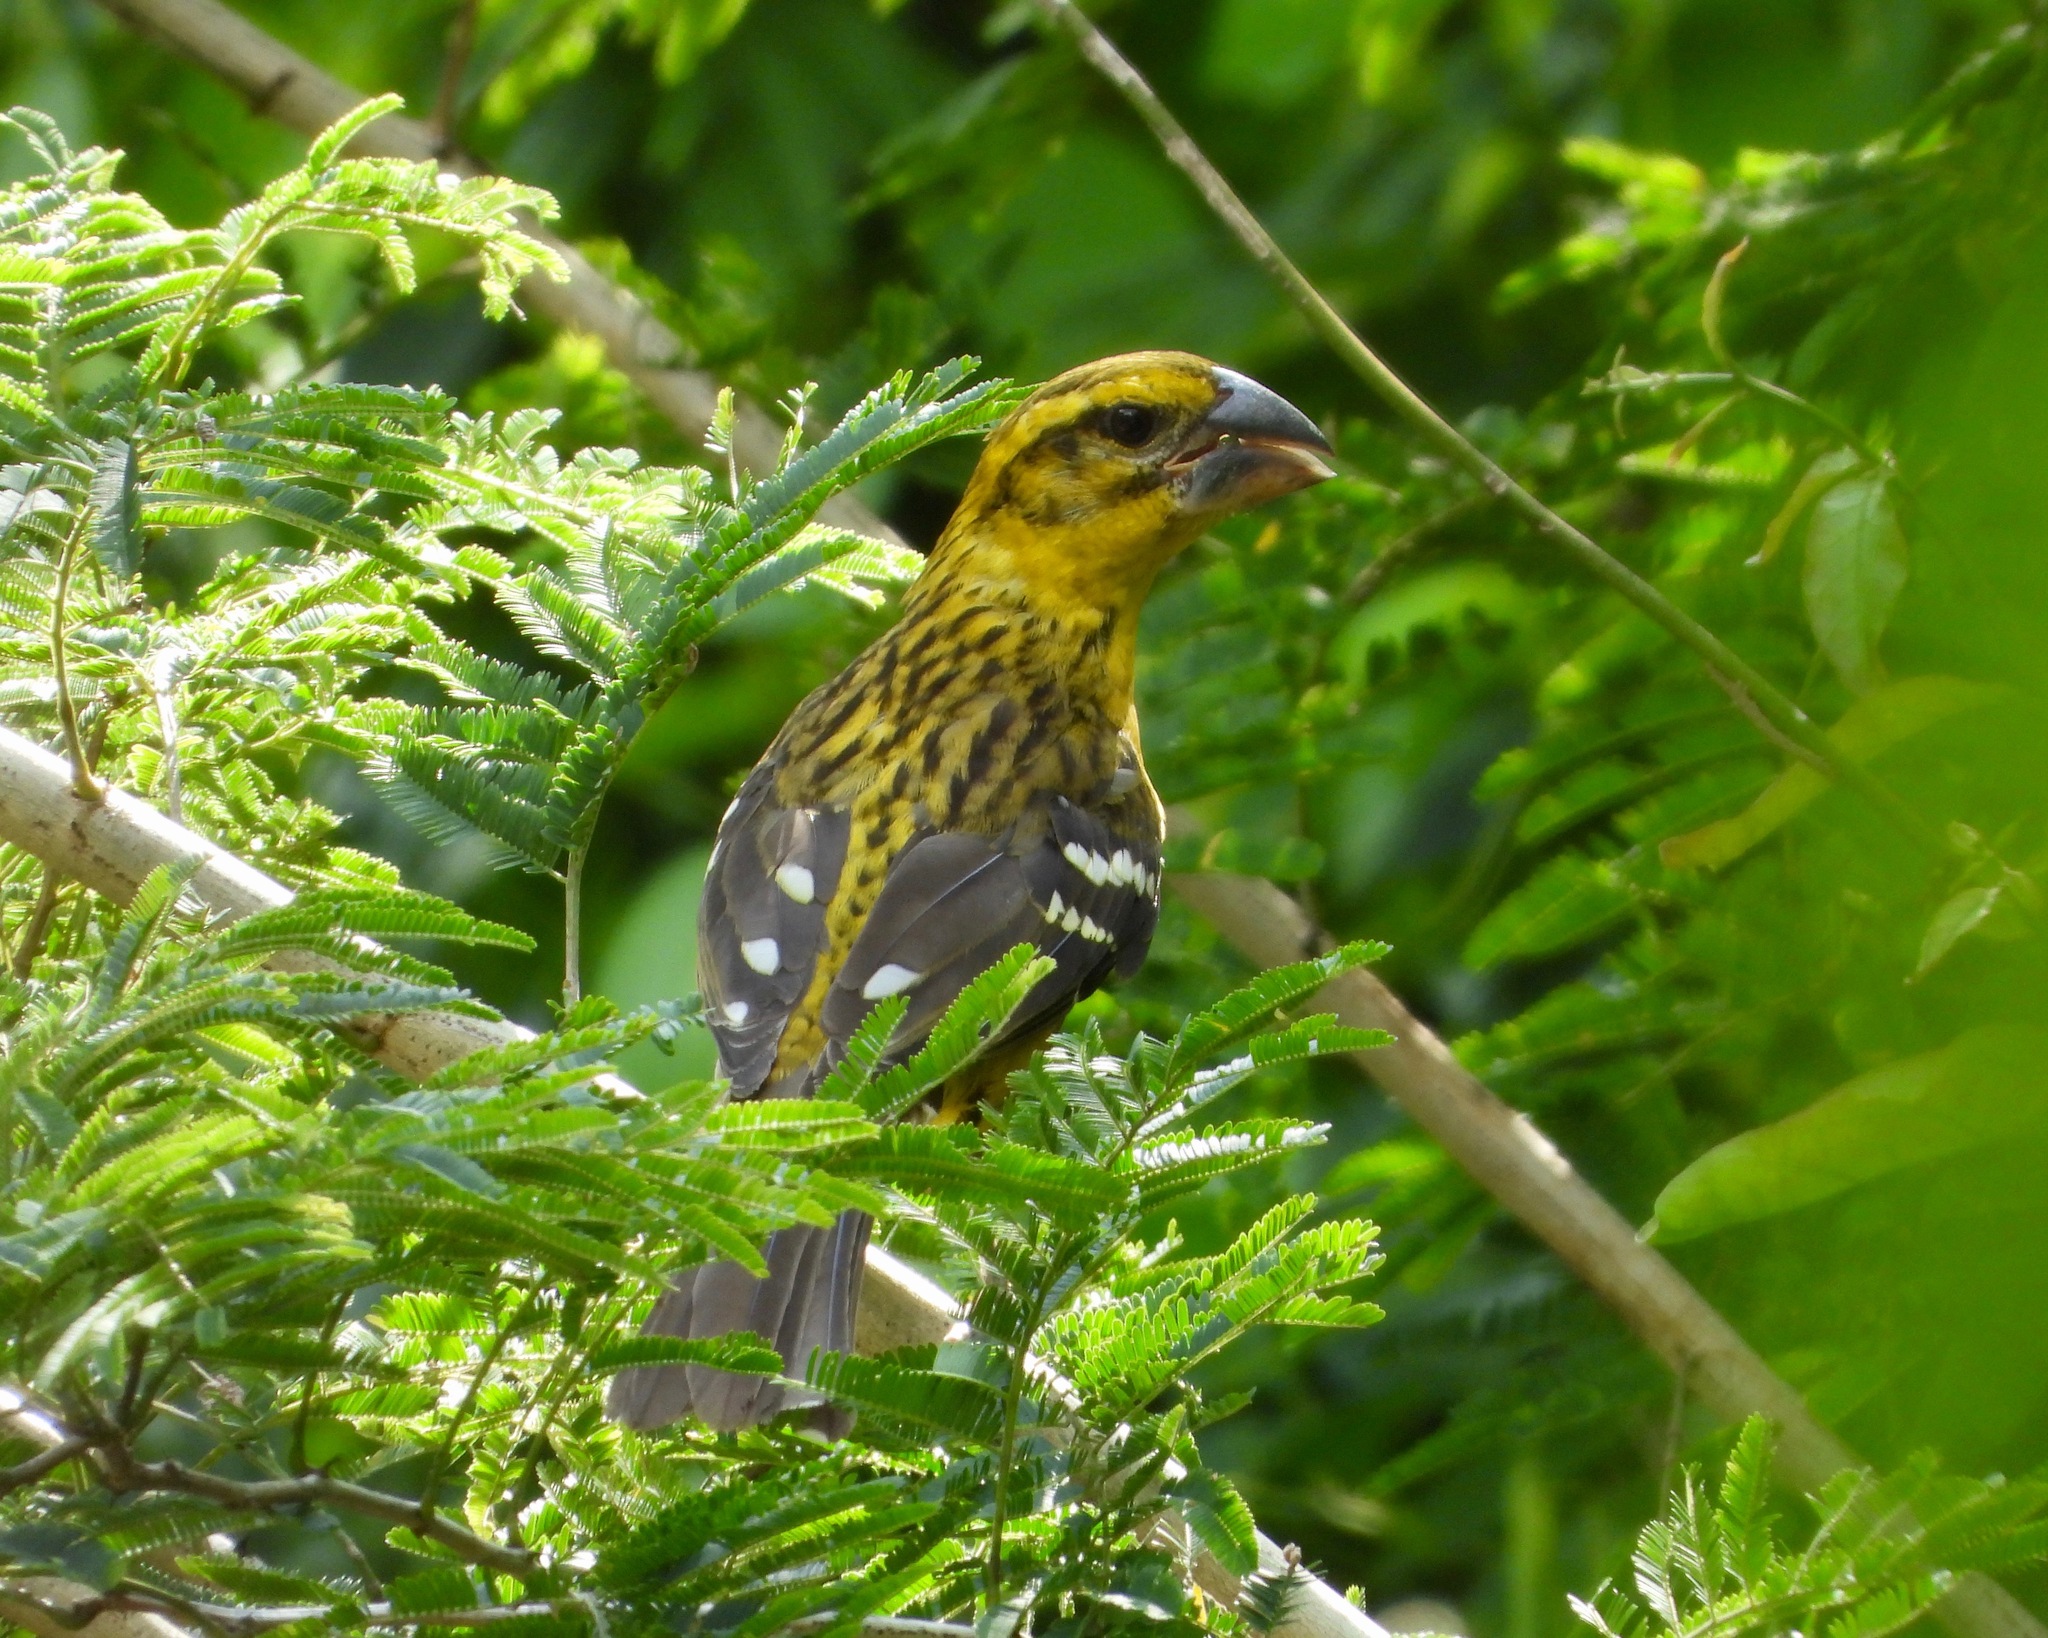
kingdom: Animalia
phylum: Chordata
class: Aves
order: Passeriformes
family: Cardinalidae
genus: Pheucticus
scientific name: Pheucticus chrysopeplus
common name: Yellow grosbeak
